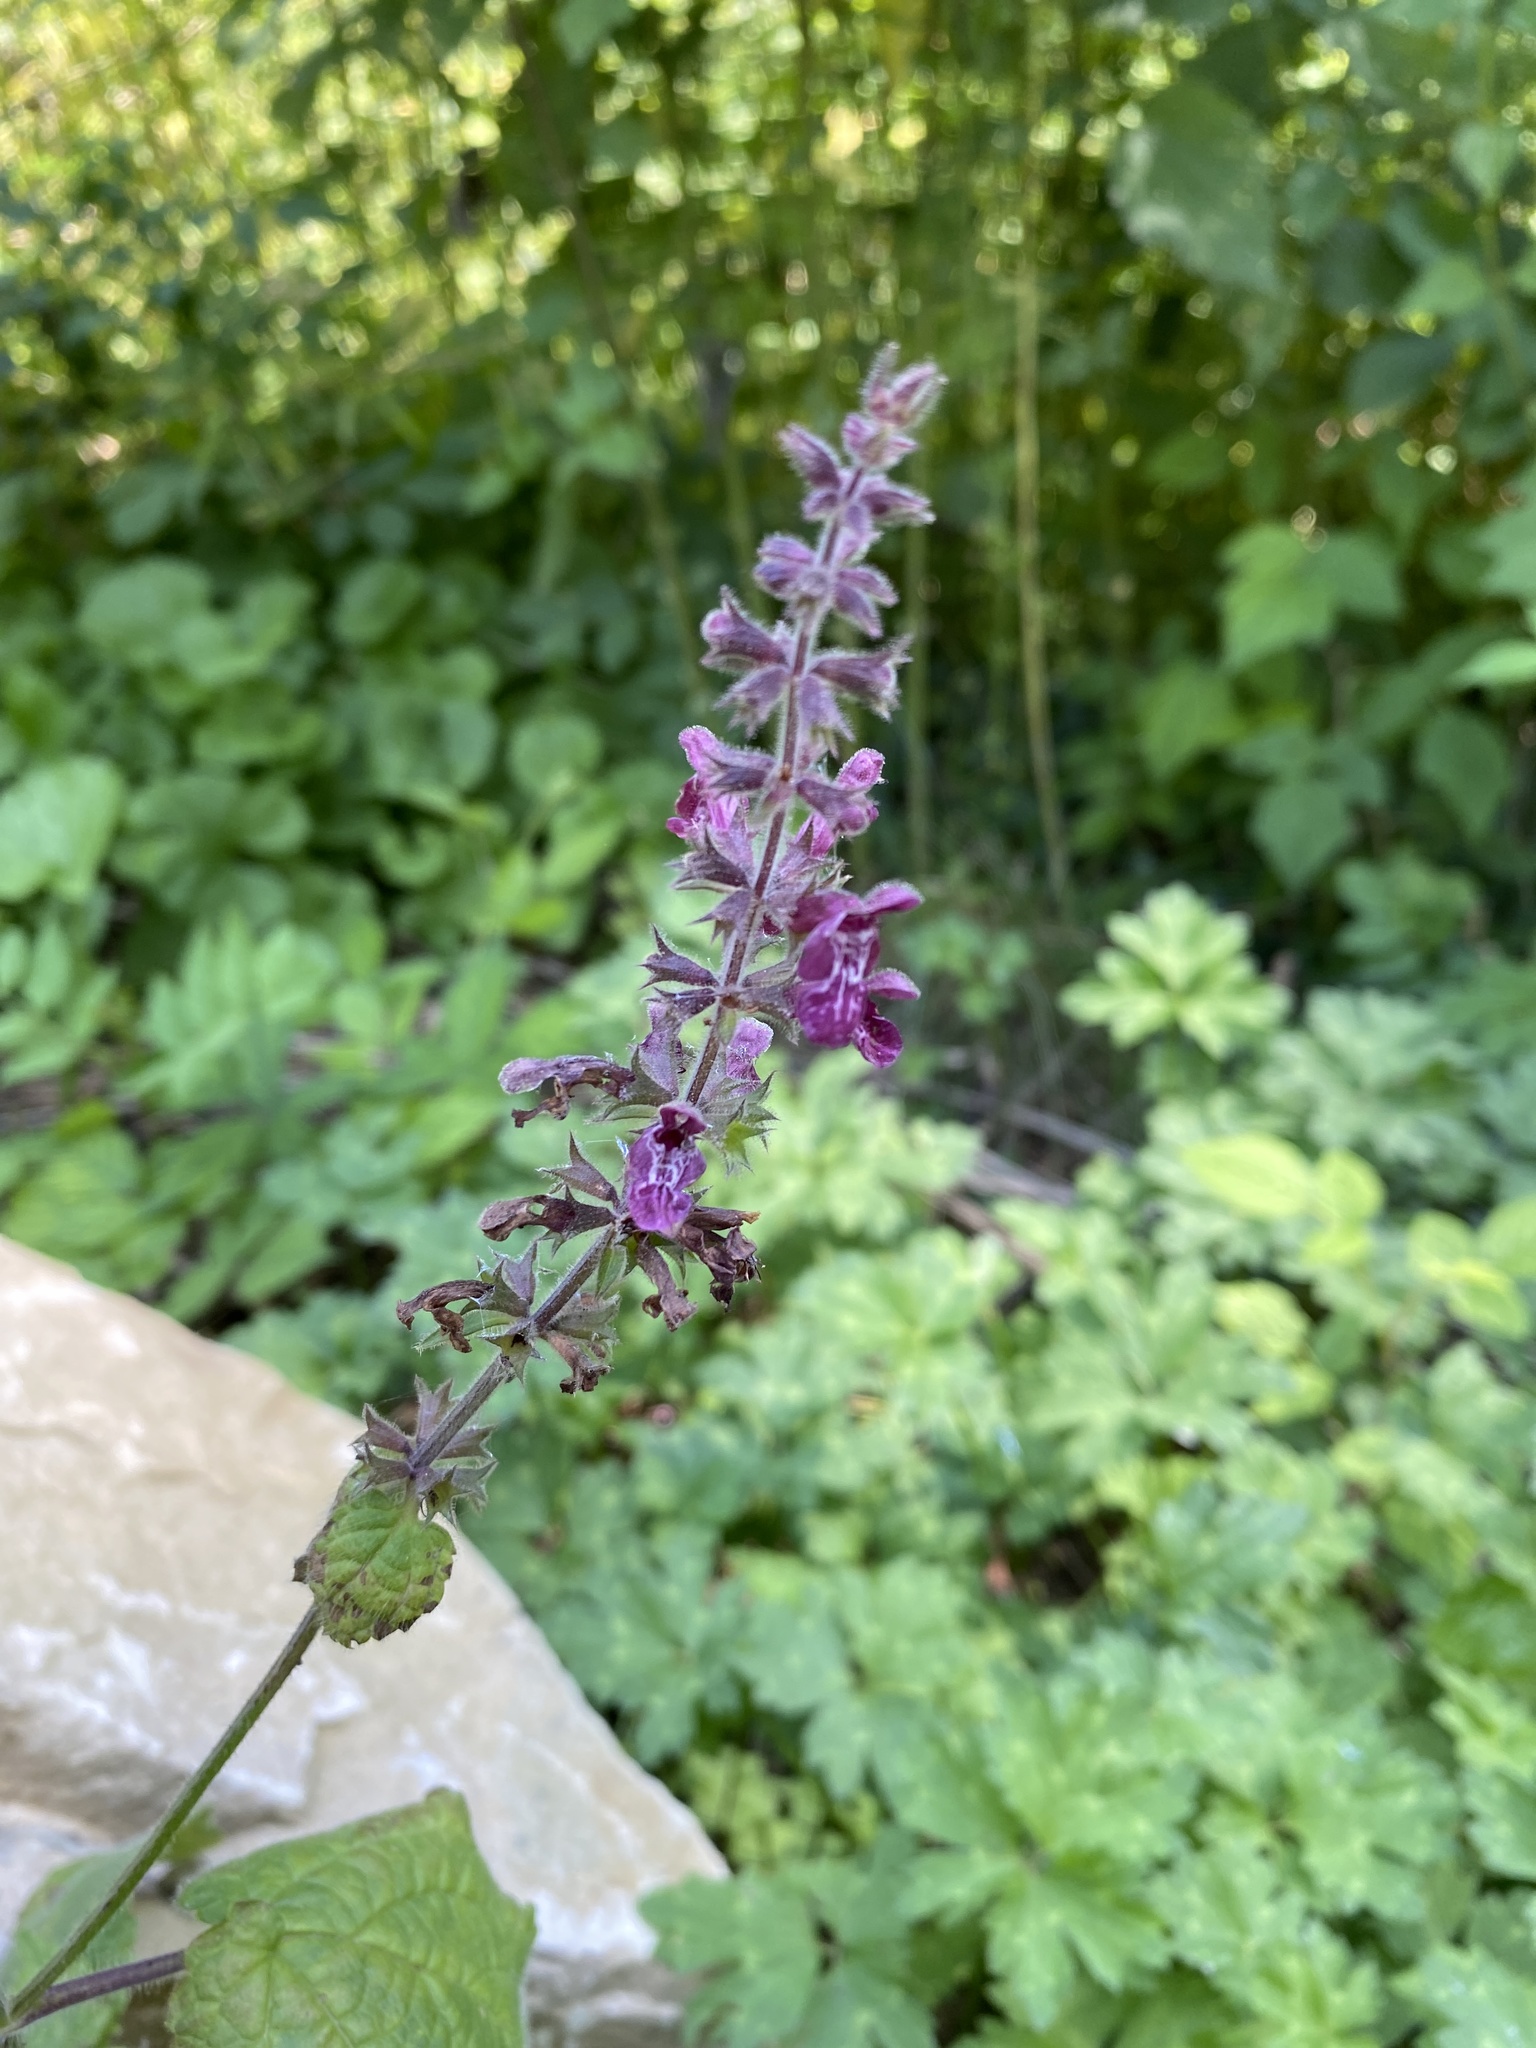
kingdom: Plantae
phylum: Tracheophyta
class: Magnoliopsida
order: Lamiales
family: Lamiaceae
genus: Stachys
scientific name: Stachys sylvatica
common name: Hedge woundwort
